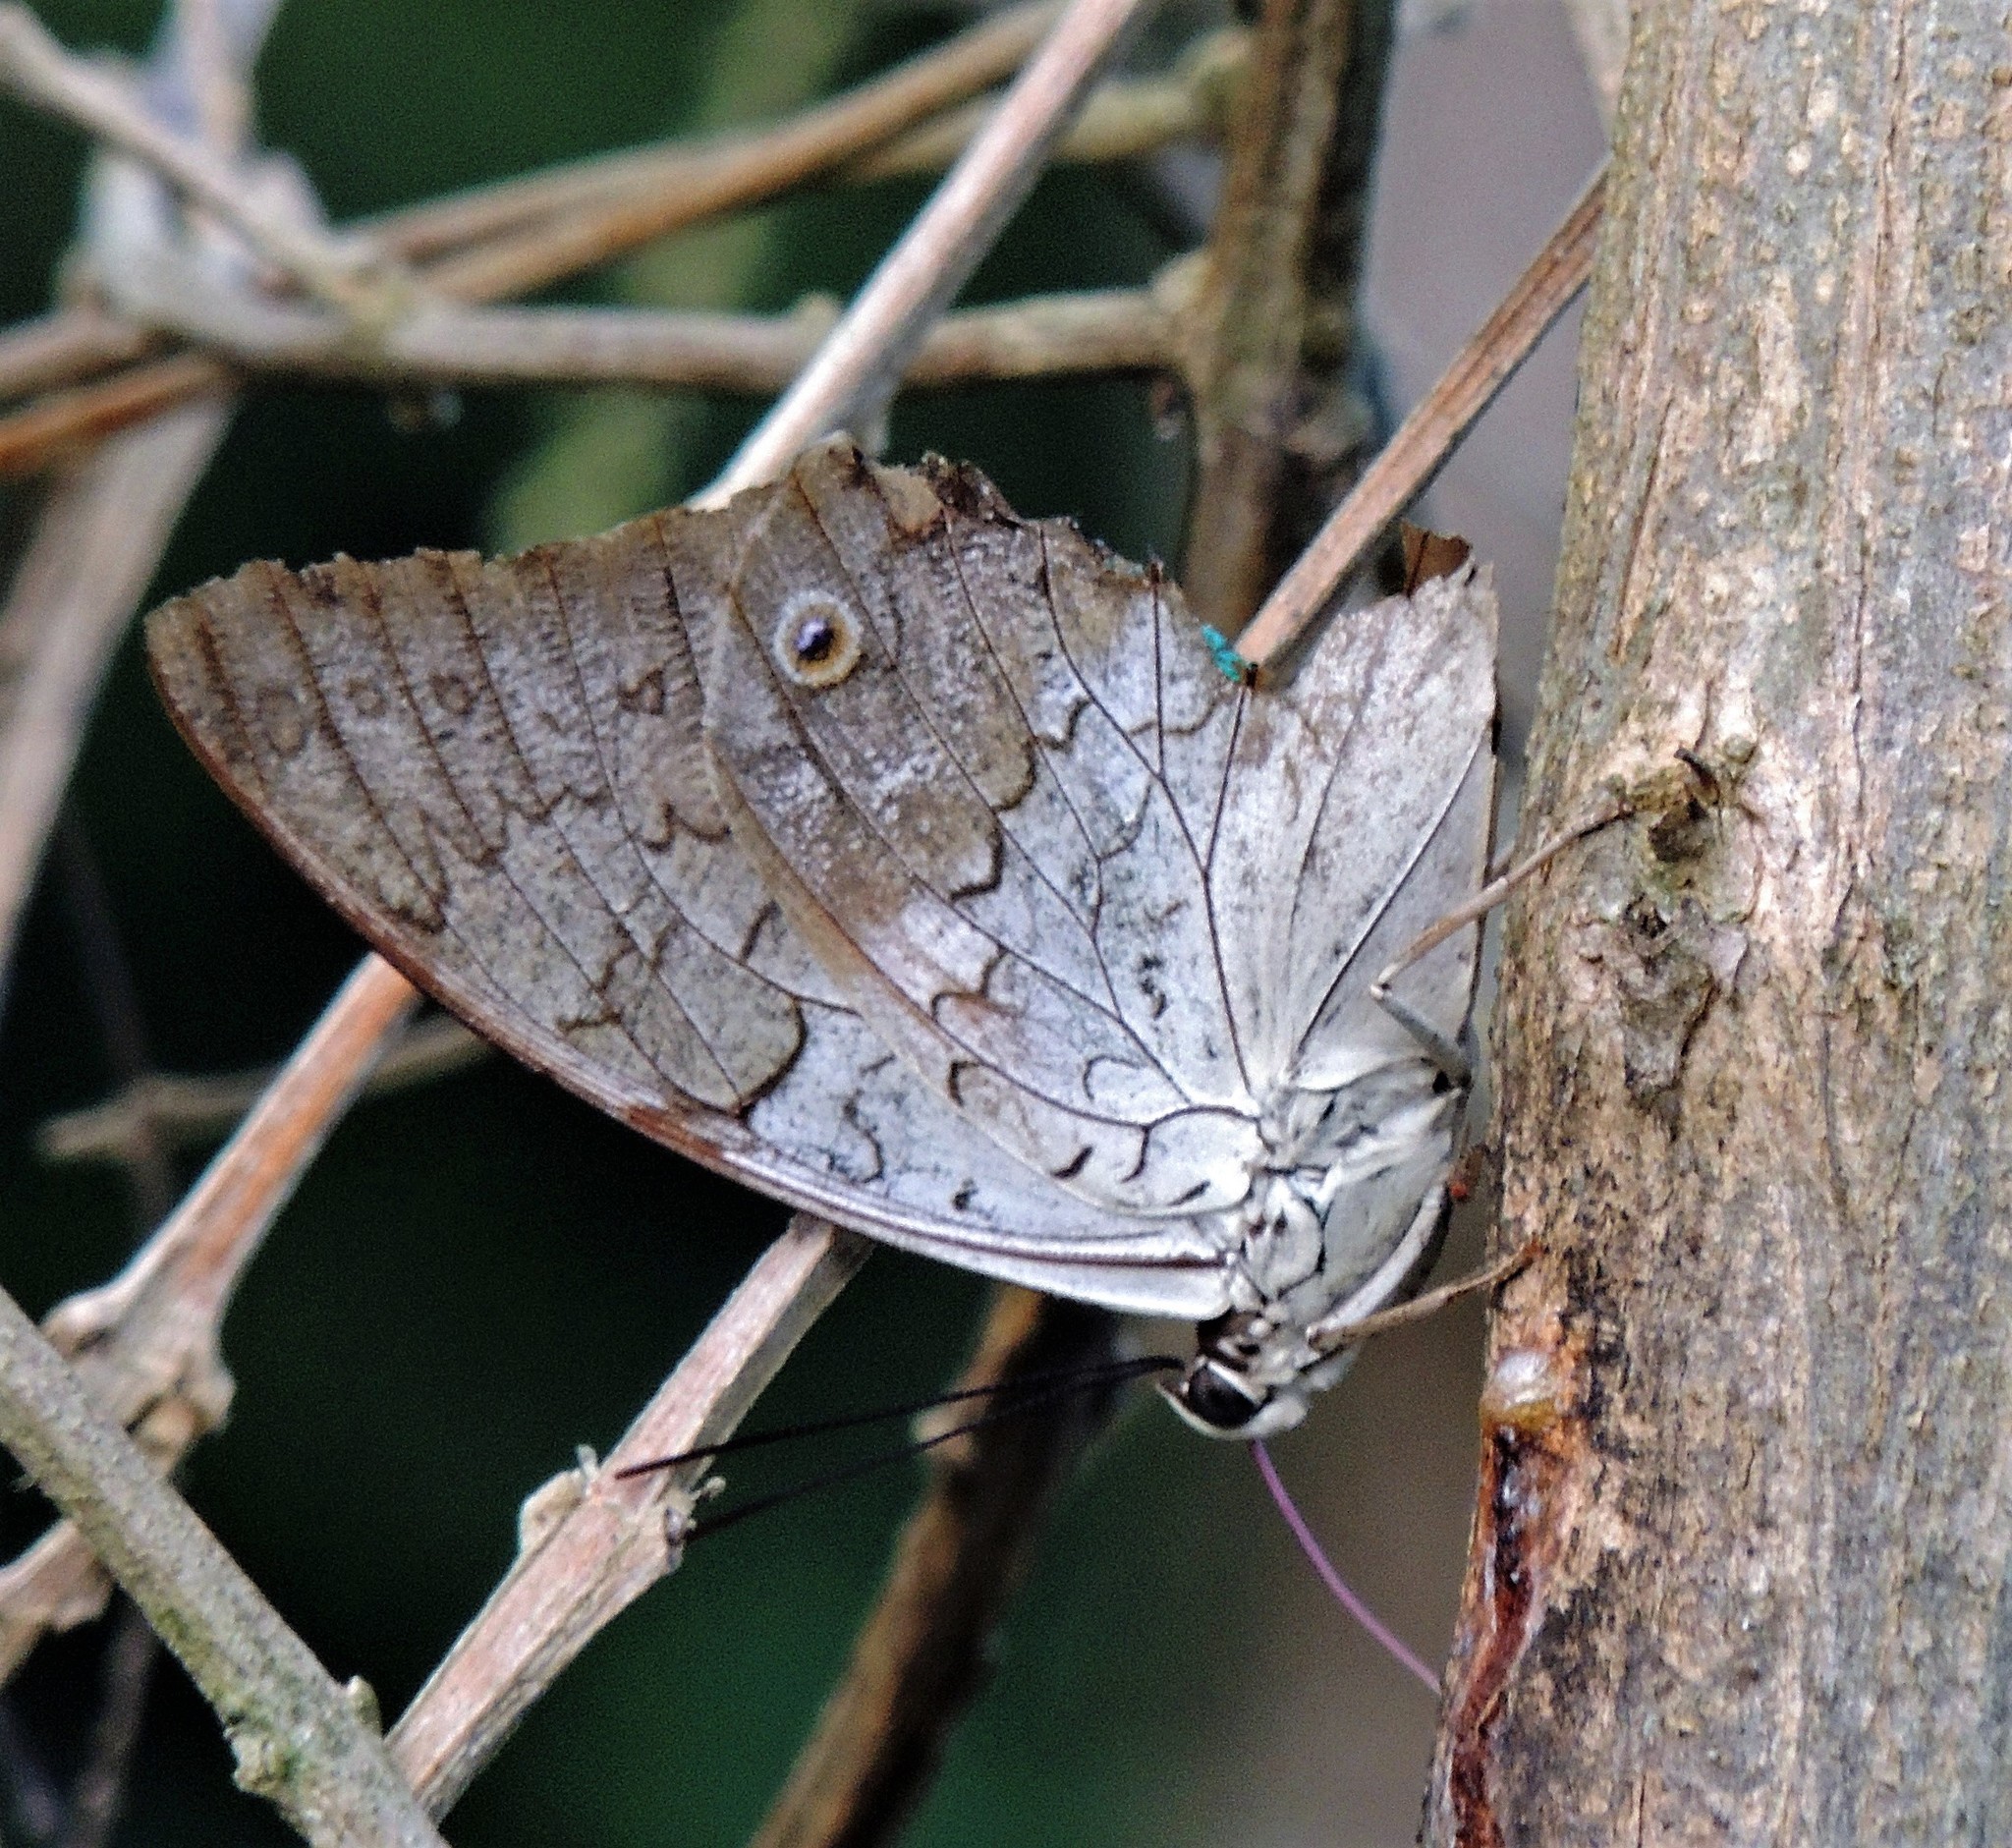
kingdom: Animalia
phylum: Arthropoda
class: Insecta
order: Lepidoptera
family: Nymphalidae
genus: Prepona
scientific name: Prepona laertes
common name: Butterfly
